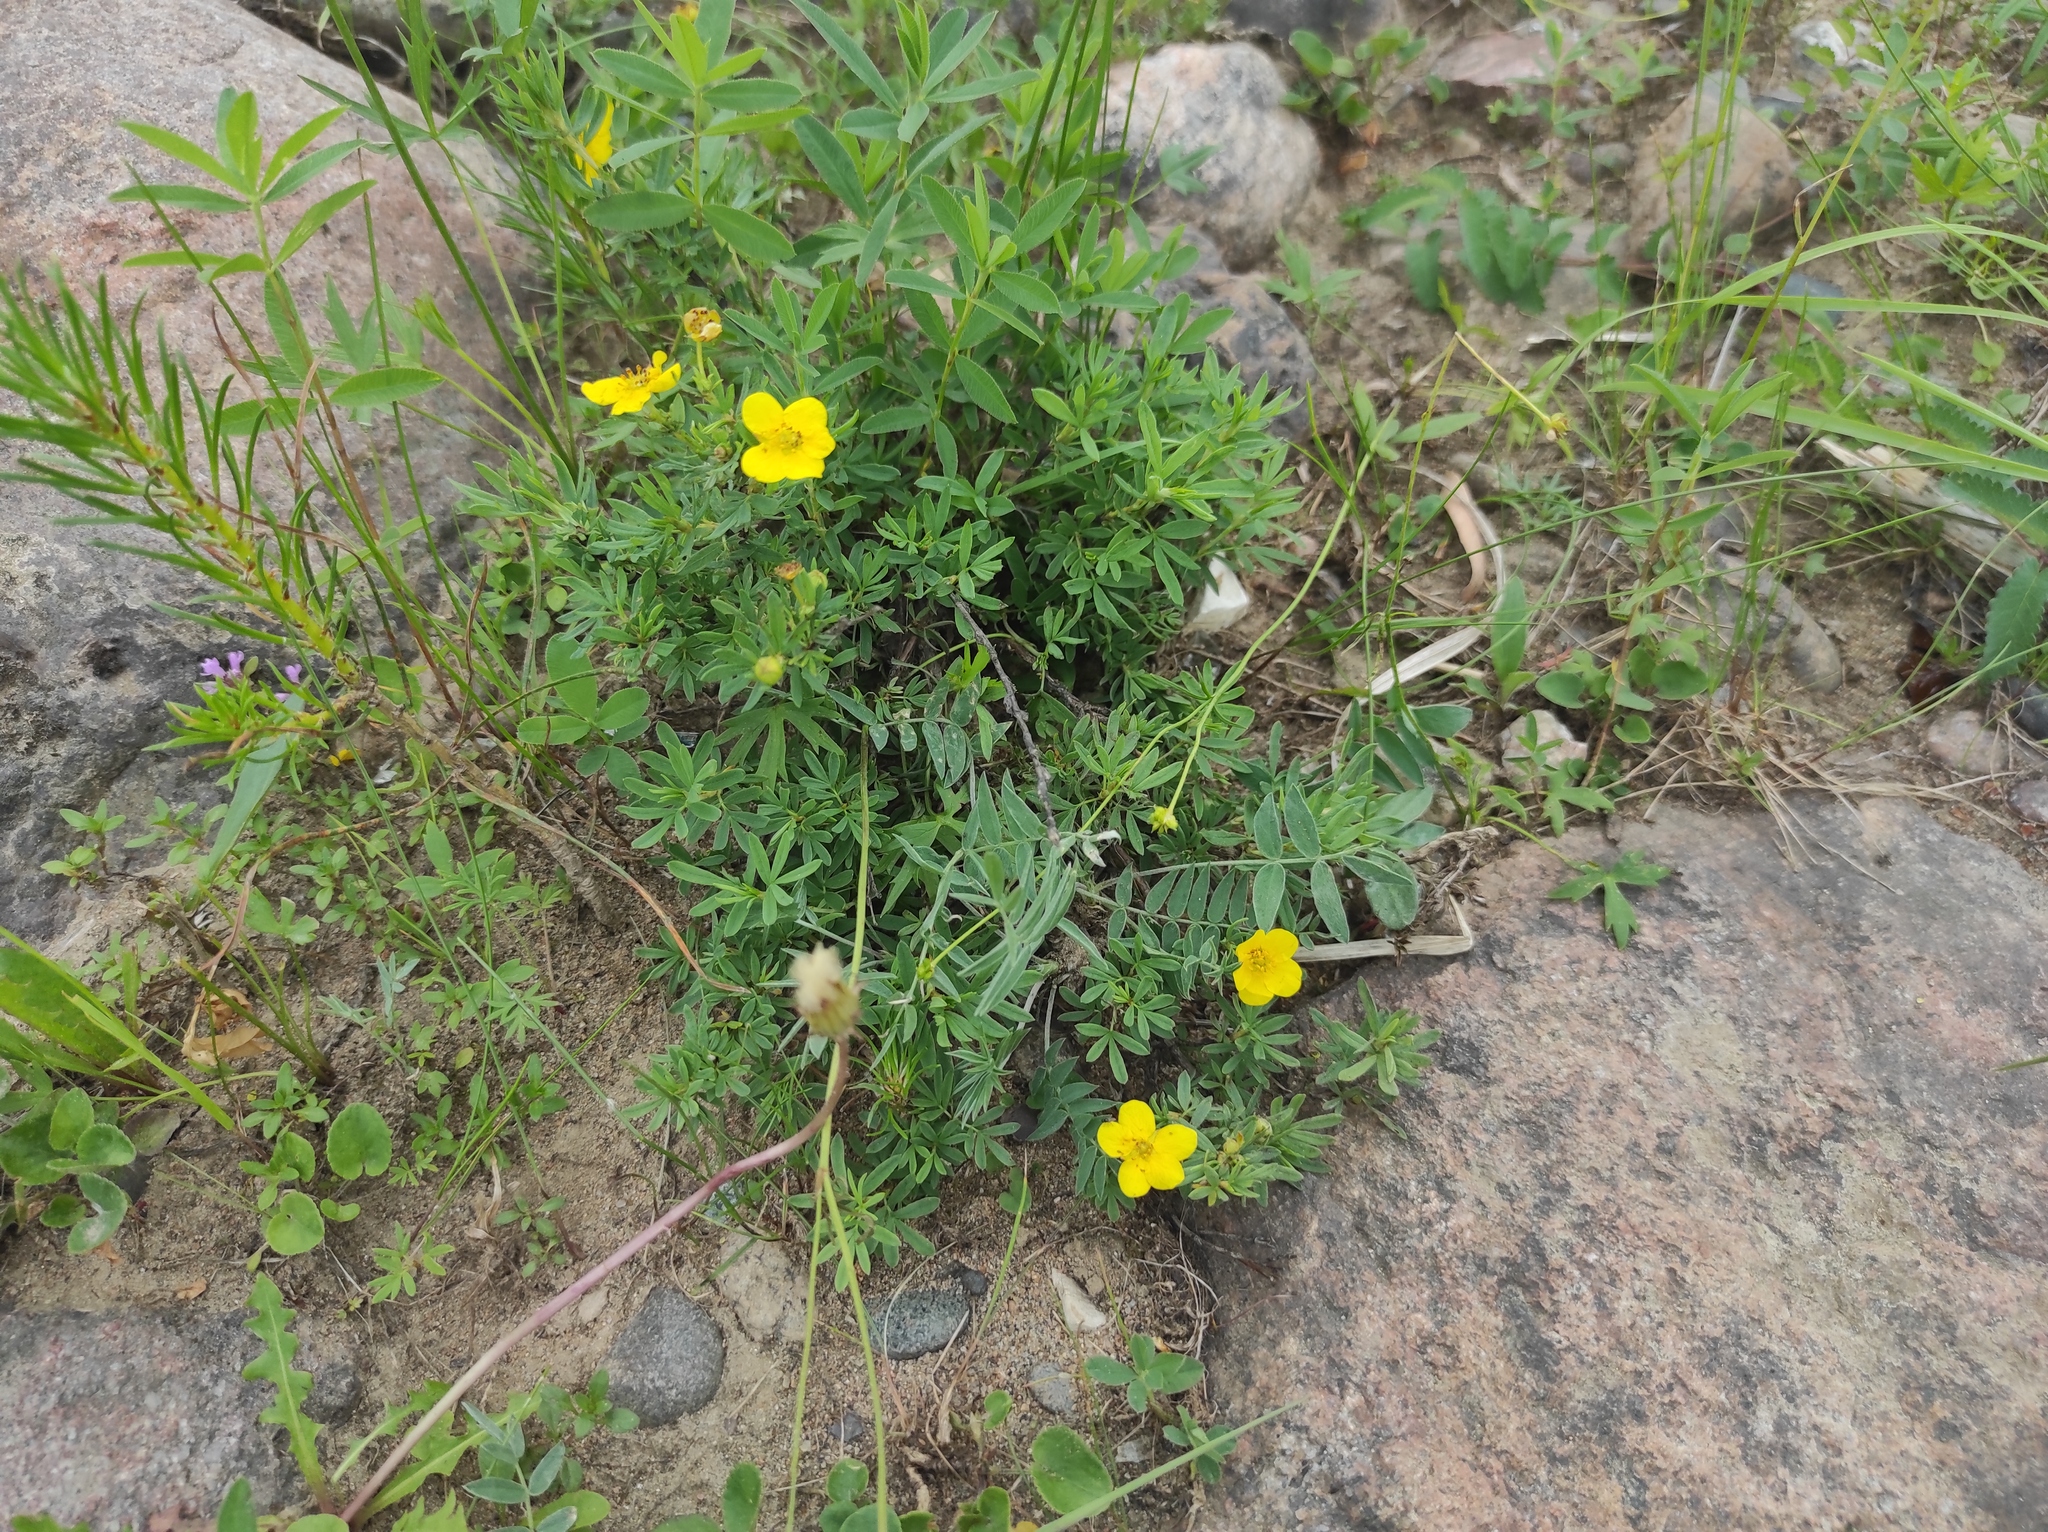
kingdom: Plantae
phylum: Tracheophyta
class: Magnoliopsida
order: Rosales
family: Rosaceae
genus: Dasiphora
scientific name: Dasiphora fruticosa
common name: Shrubby cinquefoil
